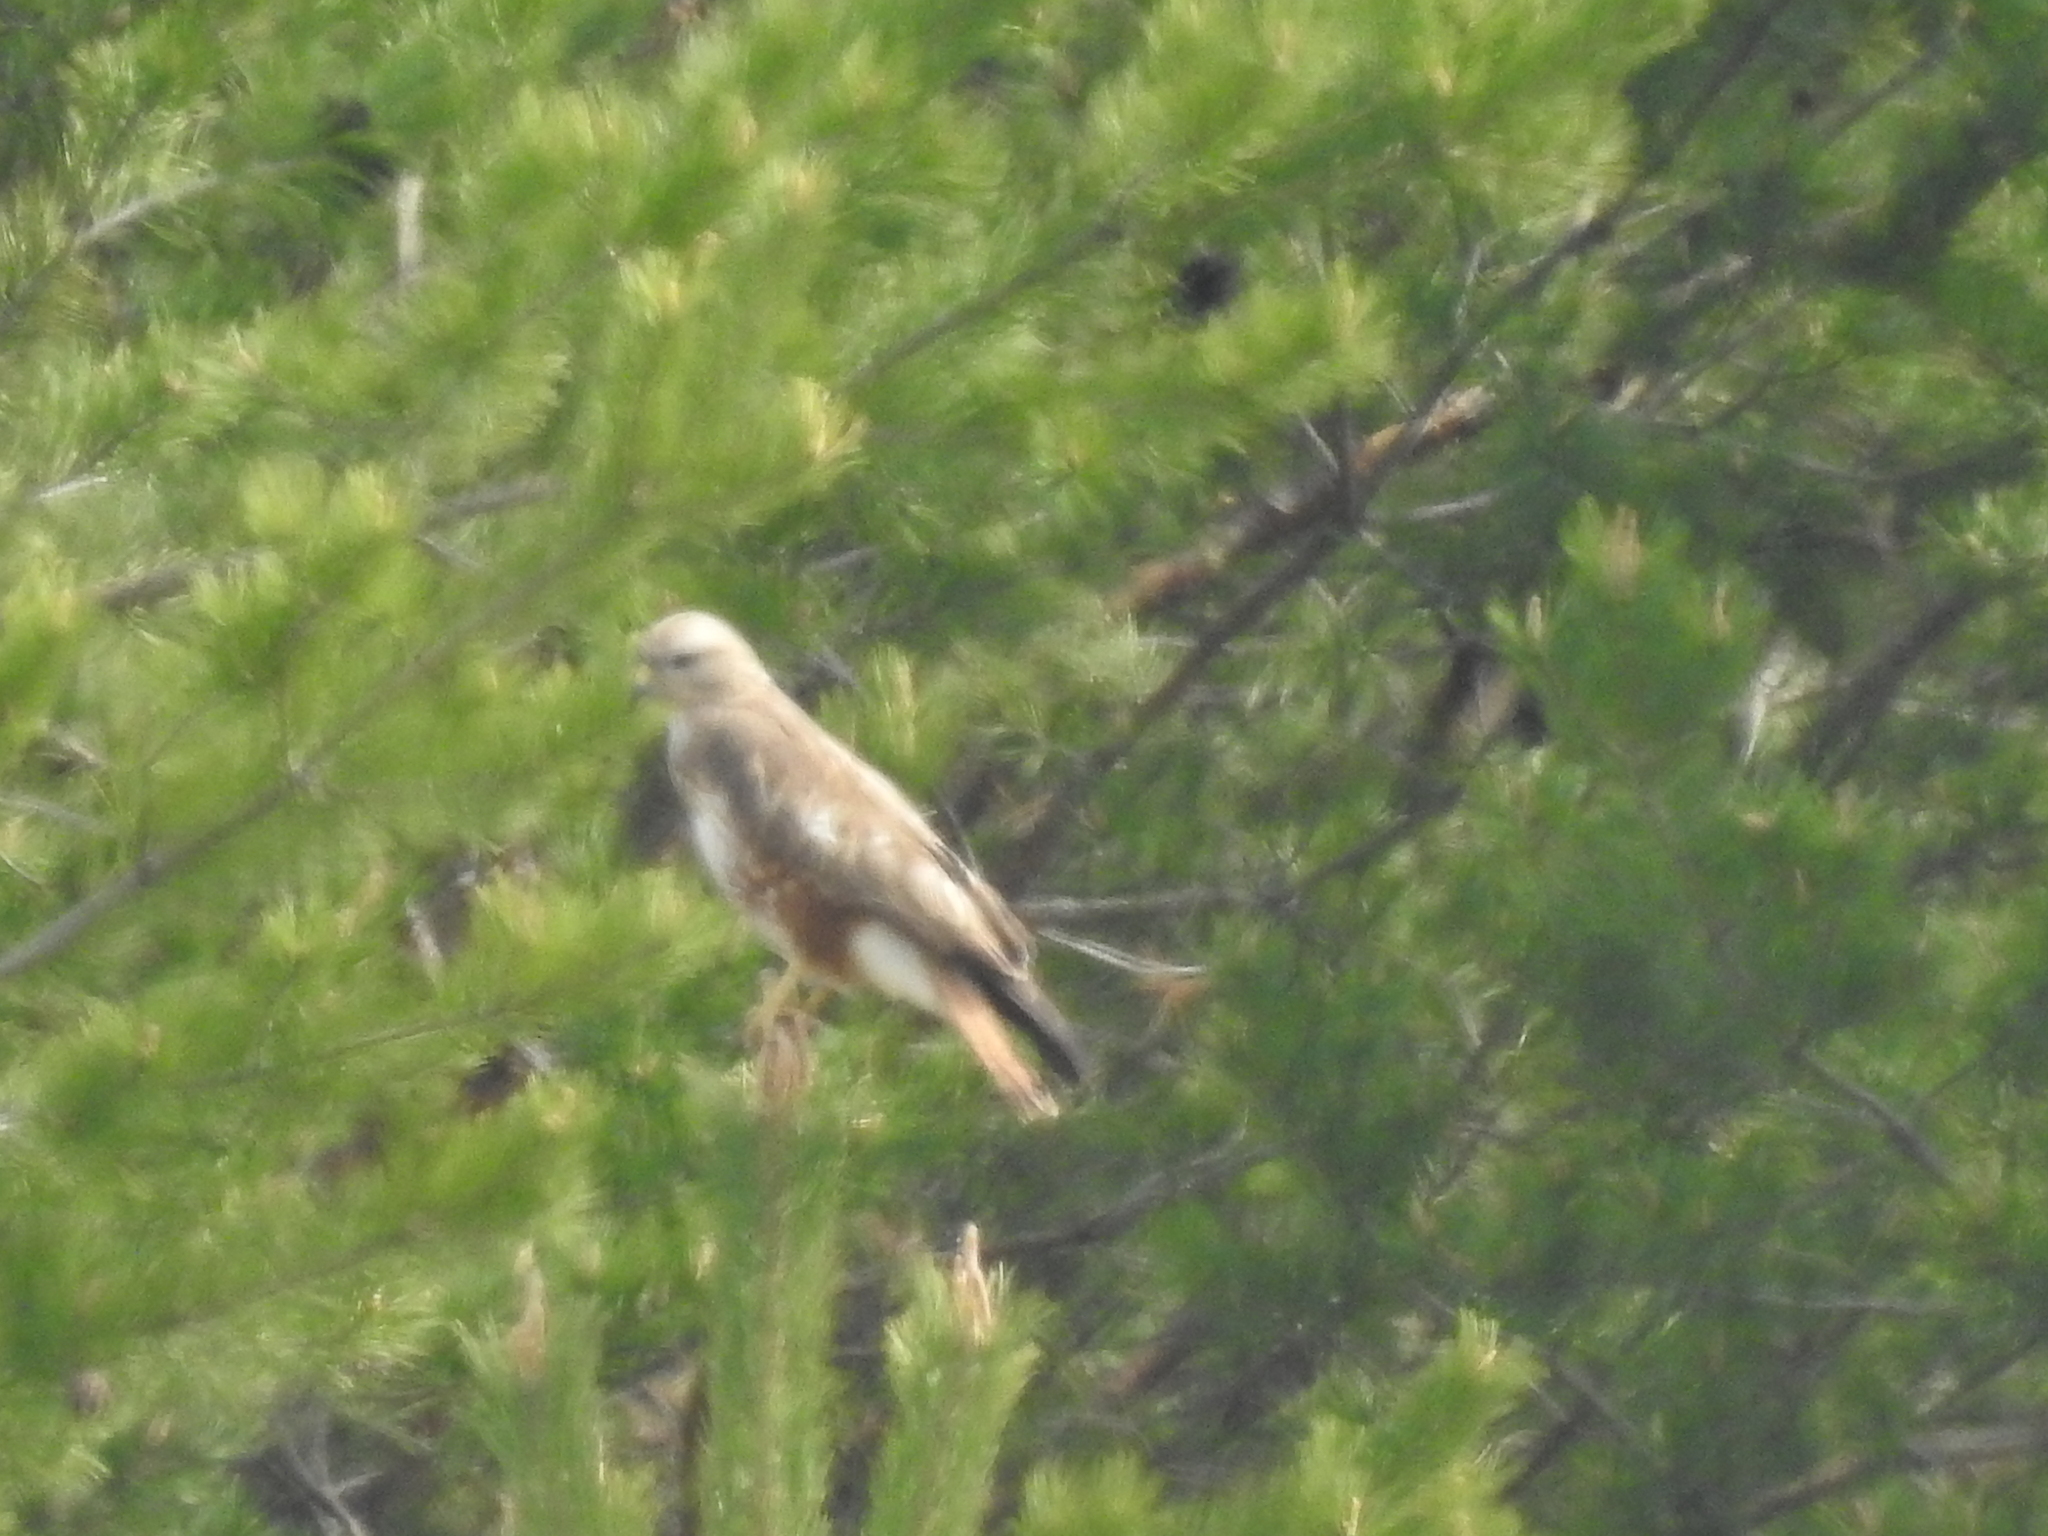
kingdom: Animalia
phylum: Chordata
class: Aves
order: Accipitriformes
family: Accipitridae
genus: Buteo
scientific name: Buteo buteo
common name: Common buzzard
